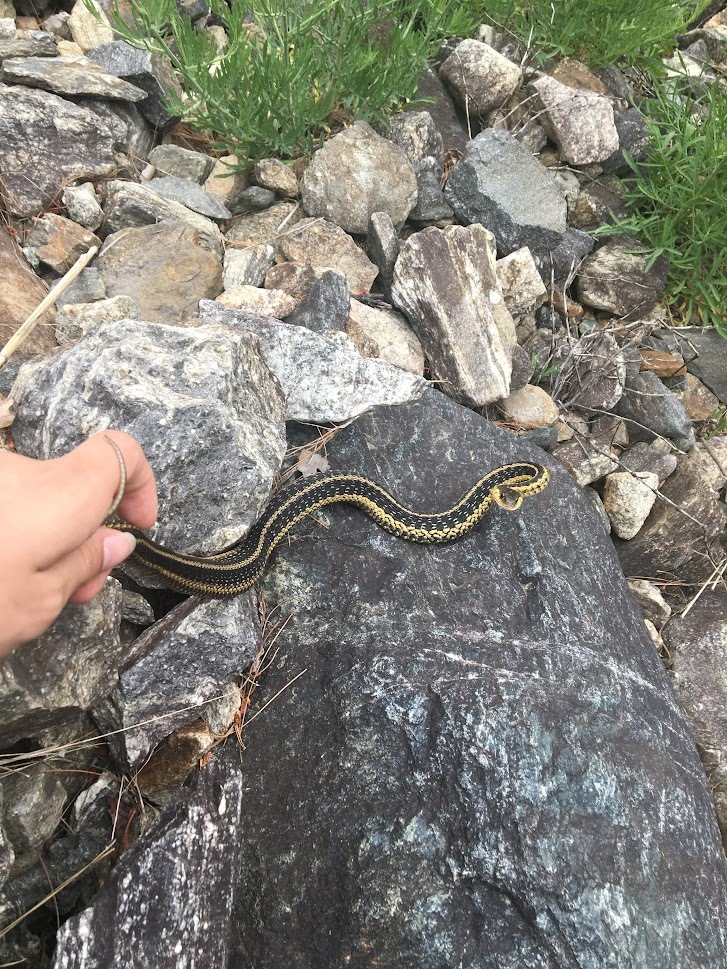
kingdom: Animalia
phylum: Chordata
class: Squamata
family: Colubridae
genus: Thamnophis
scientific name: Thamnophis sirtalis
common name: Common garter snake
